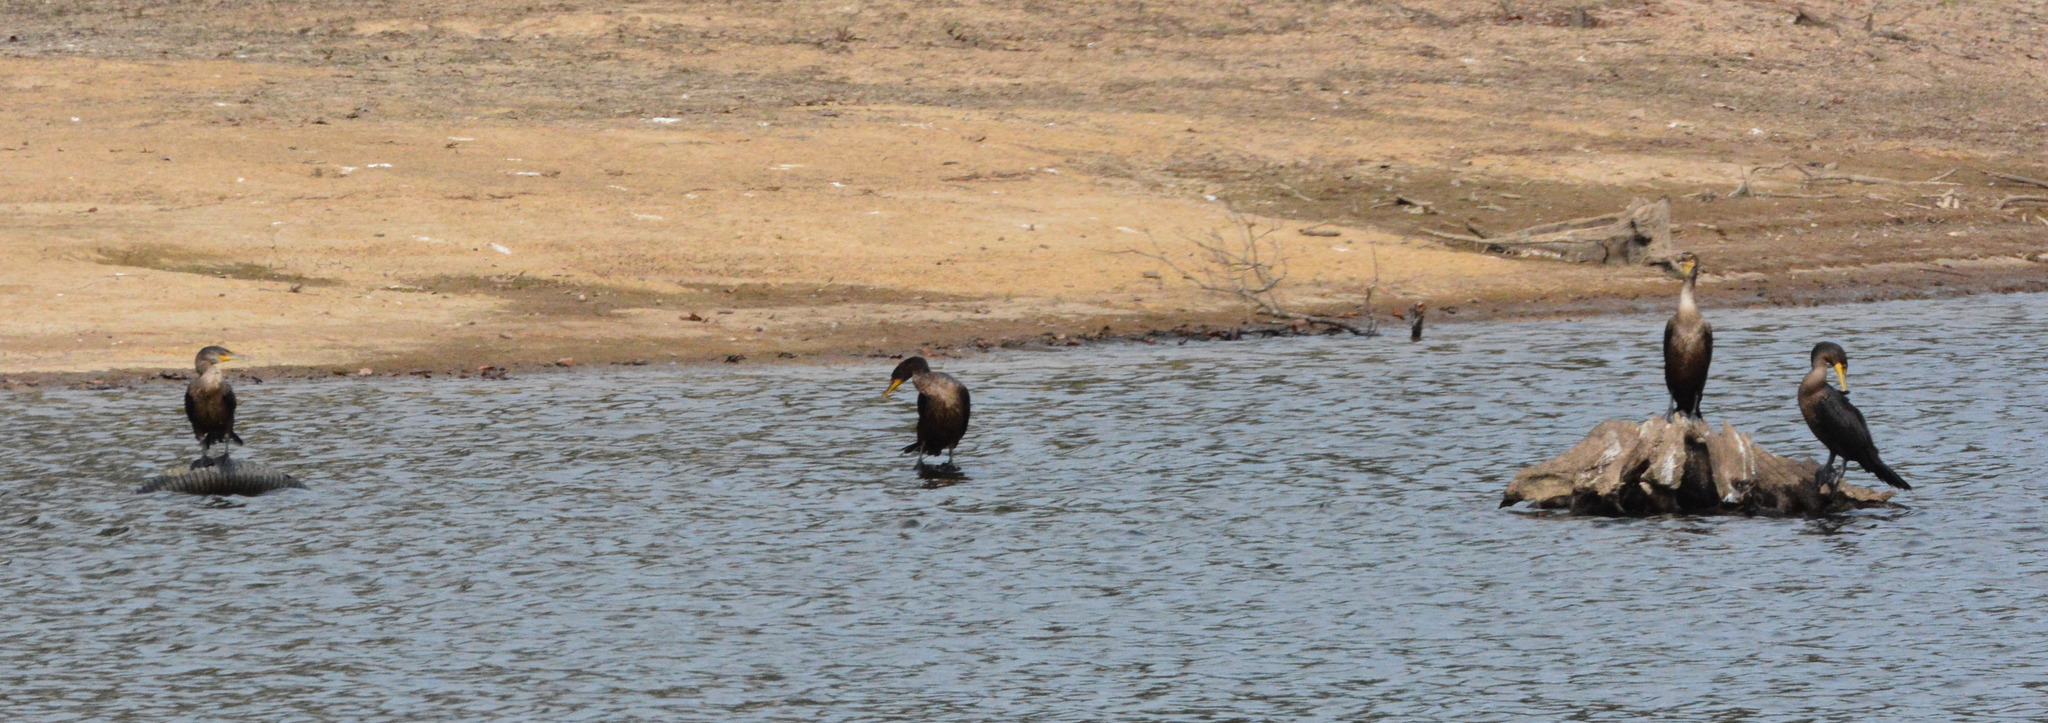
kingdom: Animalia
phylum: Chordata
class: Aves
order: Suliformes
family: Phalacrocoracidae
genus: Phalacrocorax
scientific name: Phalacrocorax auritus
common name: Double-crested cormorant
